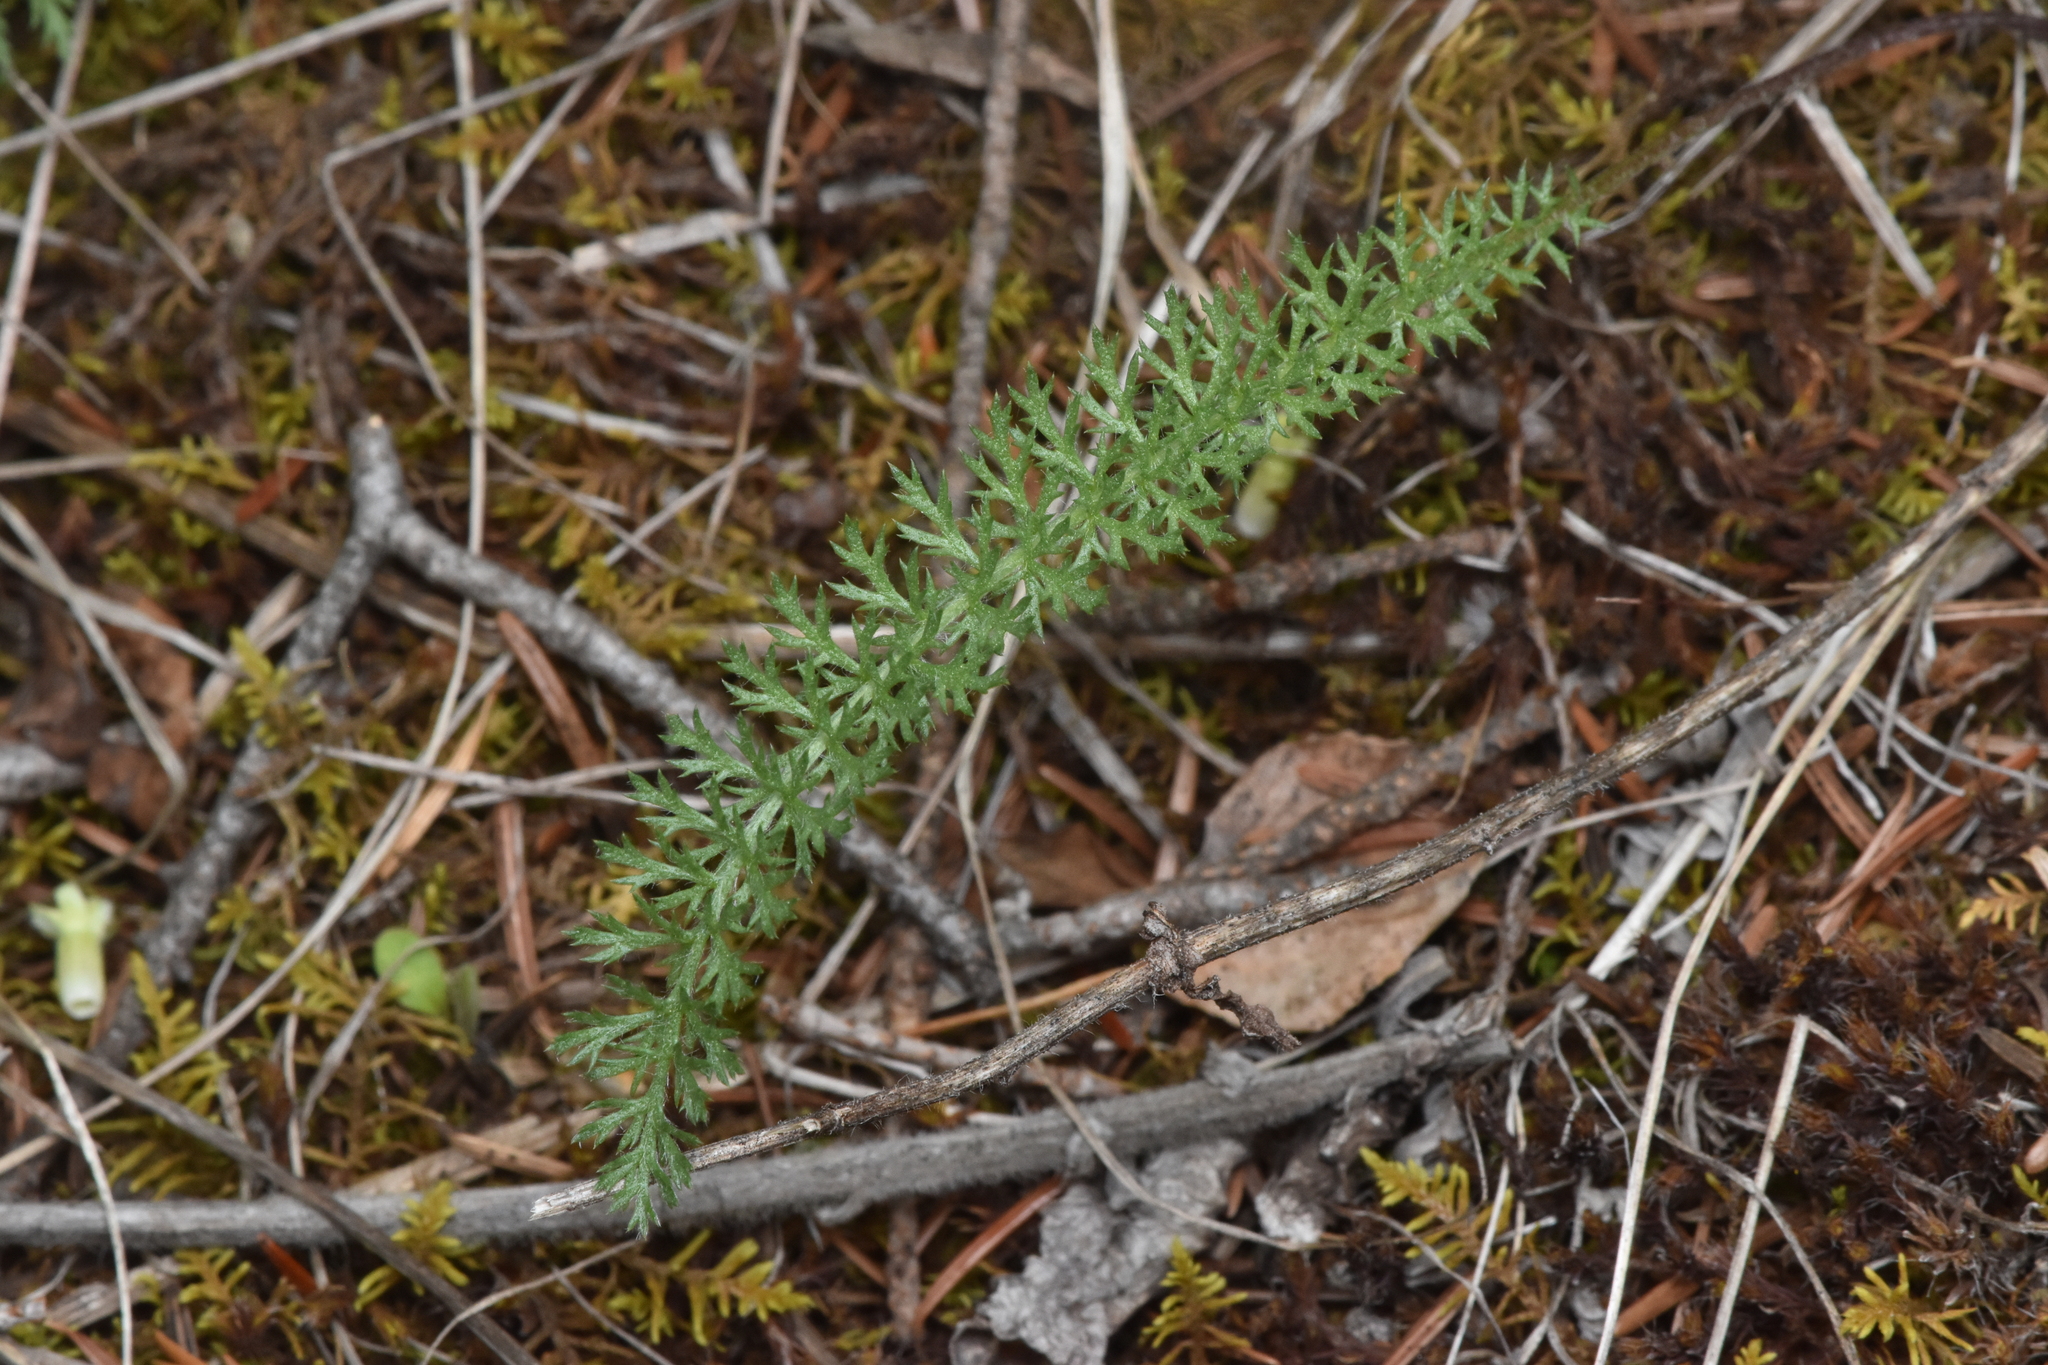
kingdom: Plantae
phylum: Tracheophyta
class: Magnoliopsida
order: Asterales
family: Asteraceae
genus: Achillea
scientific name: Achillea millefolium
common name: Yarrow
